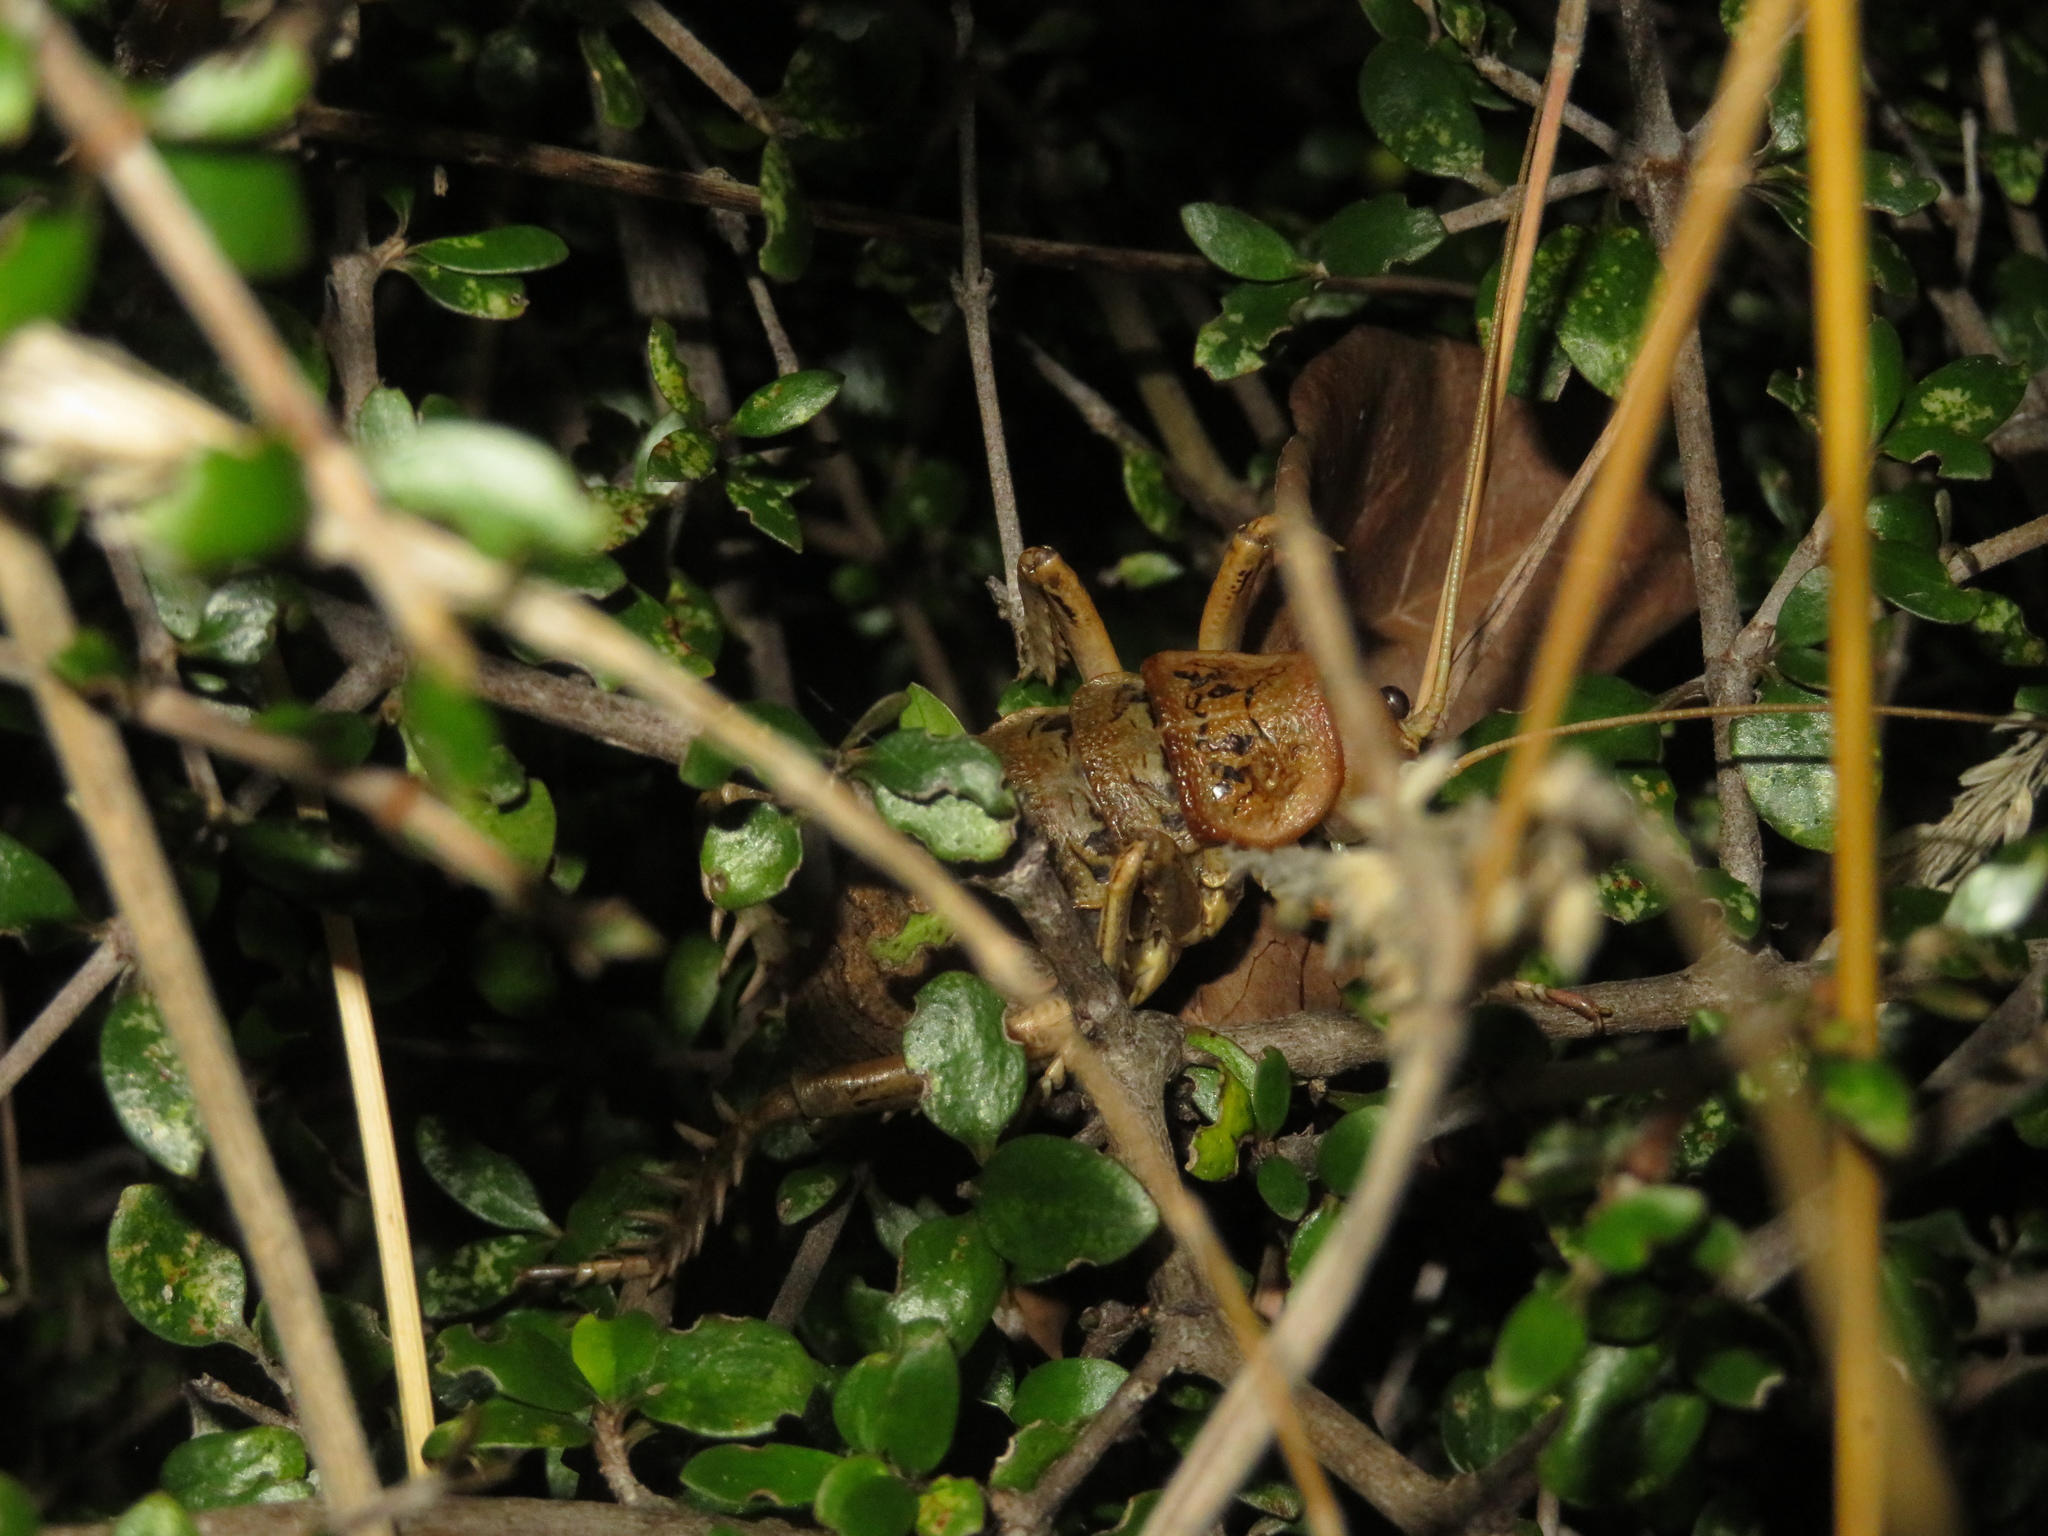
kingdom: Animalia
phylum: Arthropoda
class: Insecta
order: Orthoptera
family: Anostostomatidae
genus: Deinacrida
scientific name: Deinacrida rugosa
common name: Stephens island weta
